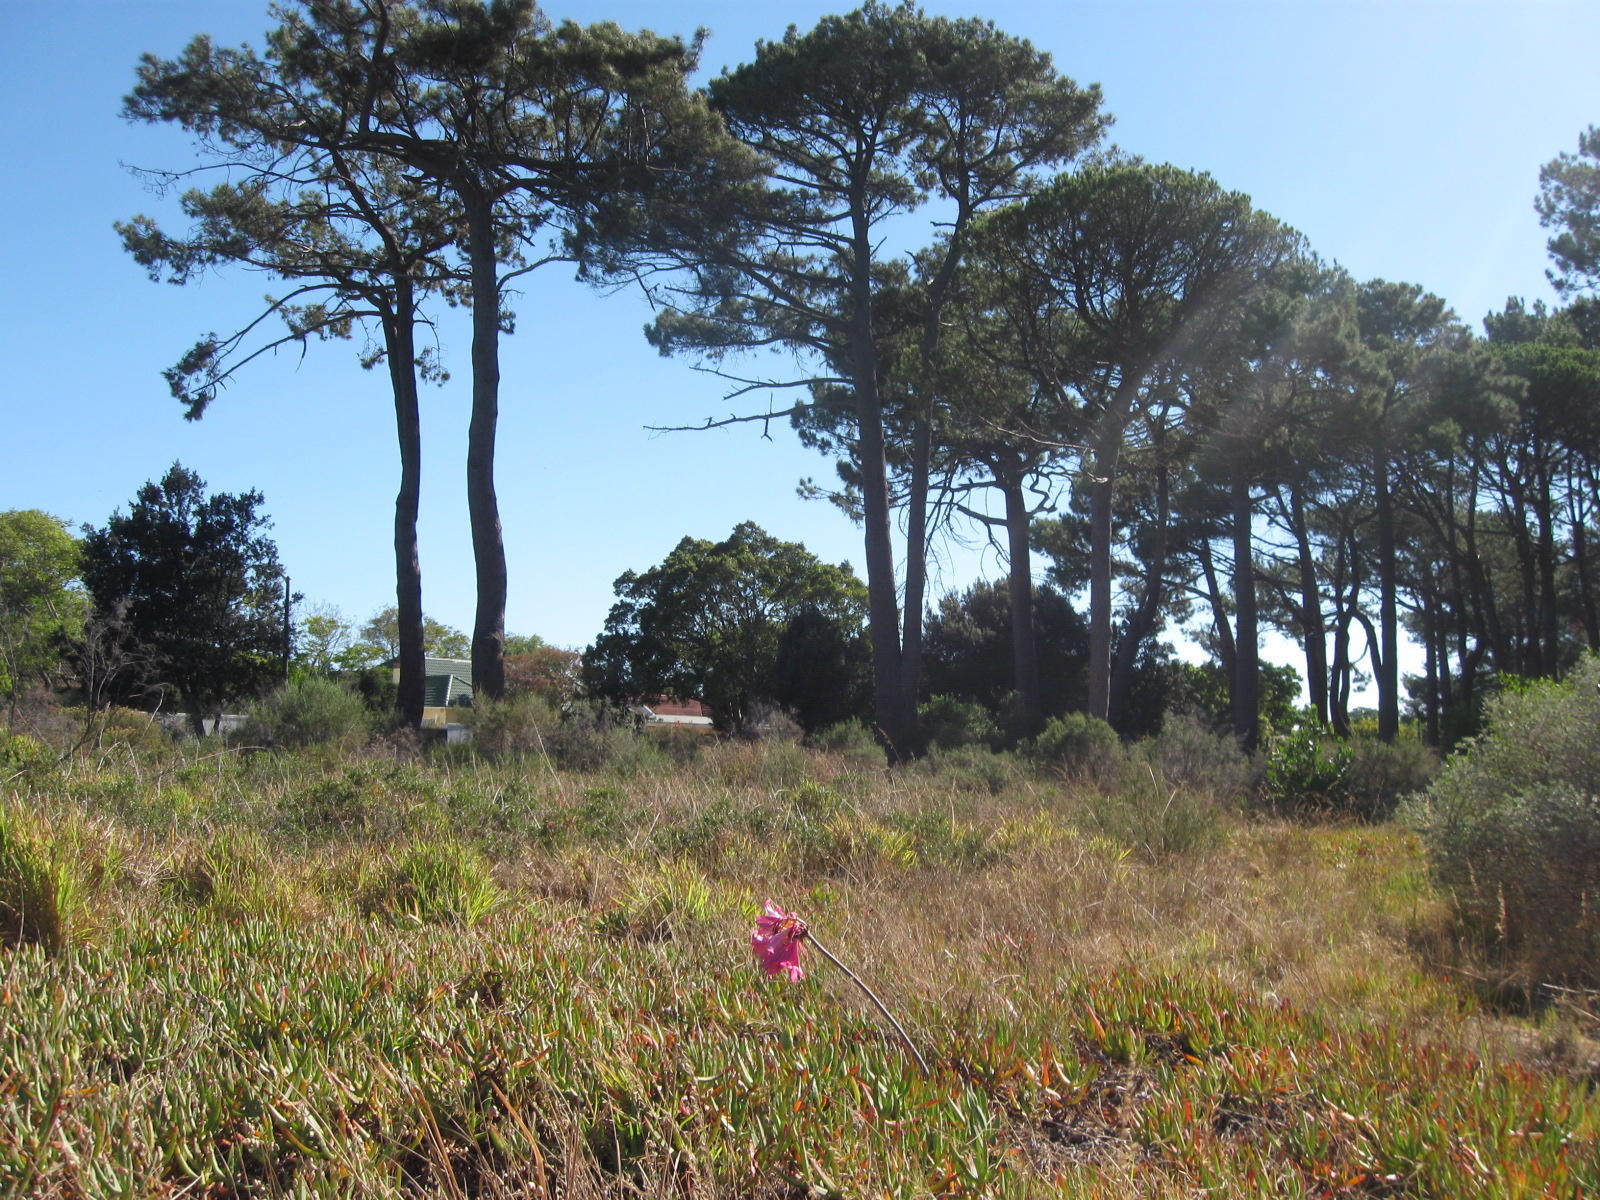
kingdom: Plantae
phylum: Tracheophyta
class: Liliopsida
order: Asparagales
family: Amaryllidaceae
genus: Amaryllis
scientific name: Amaryllis belladonna
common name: Jersey lily
